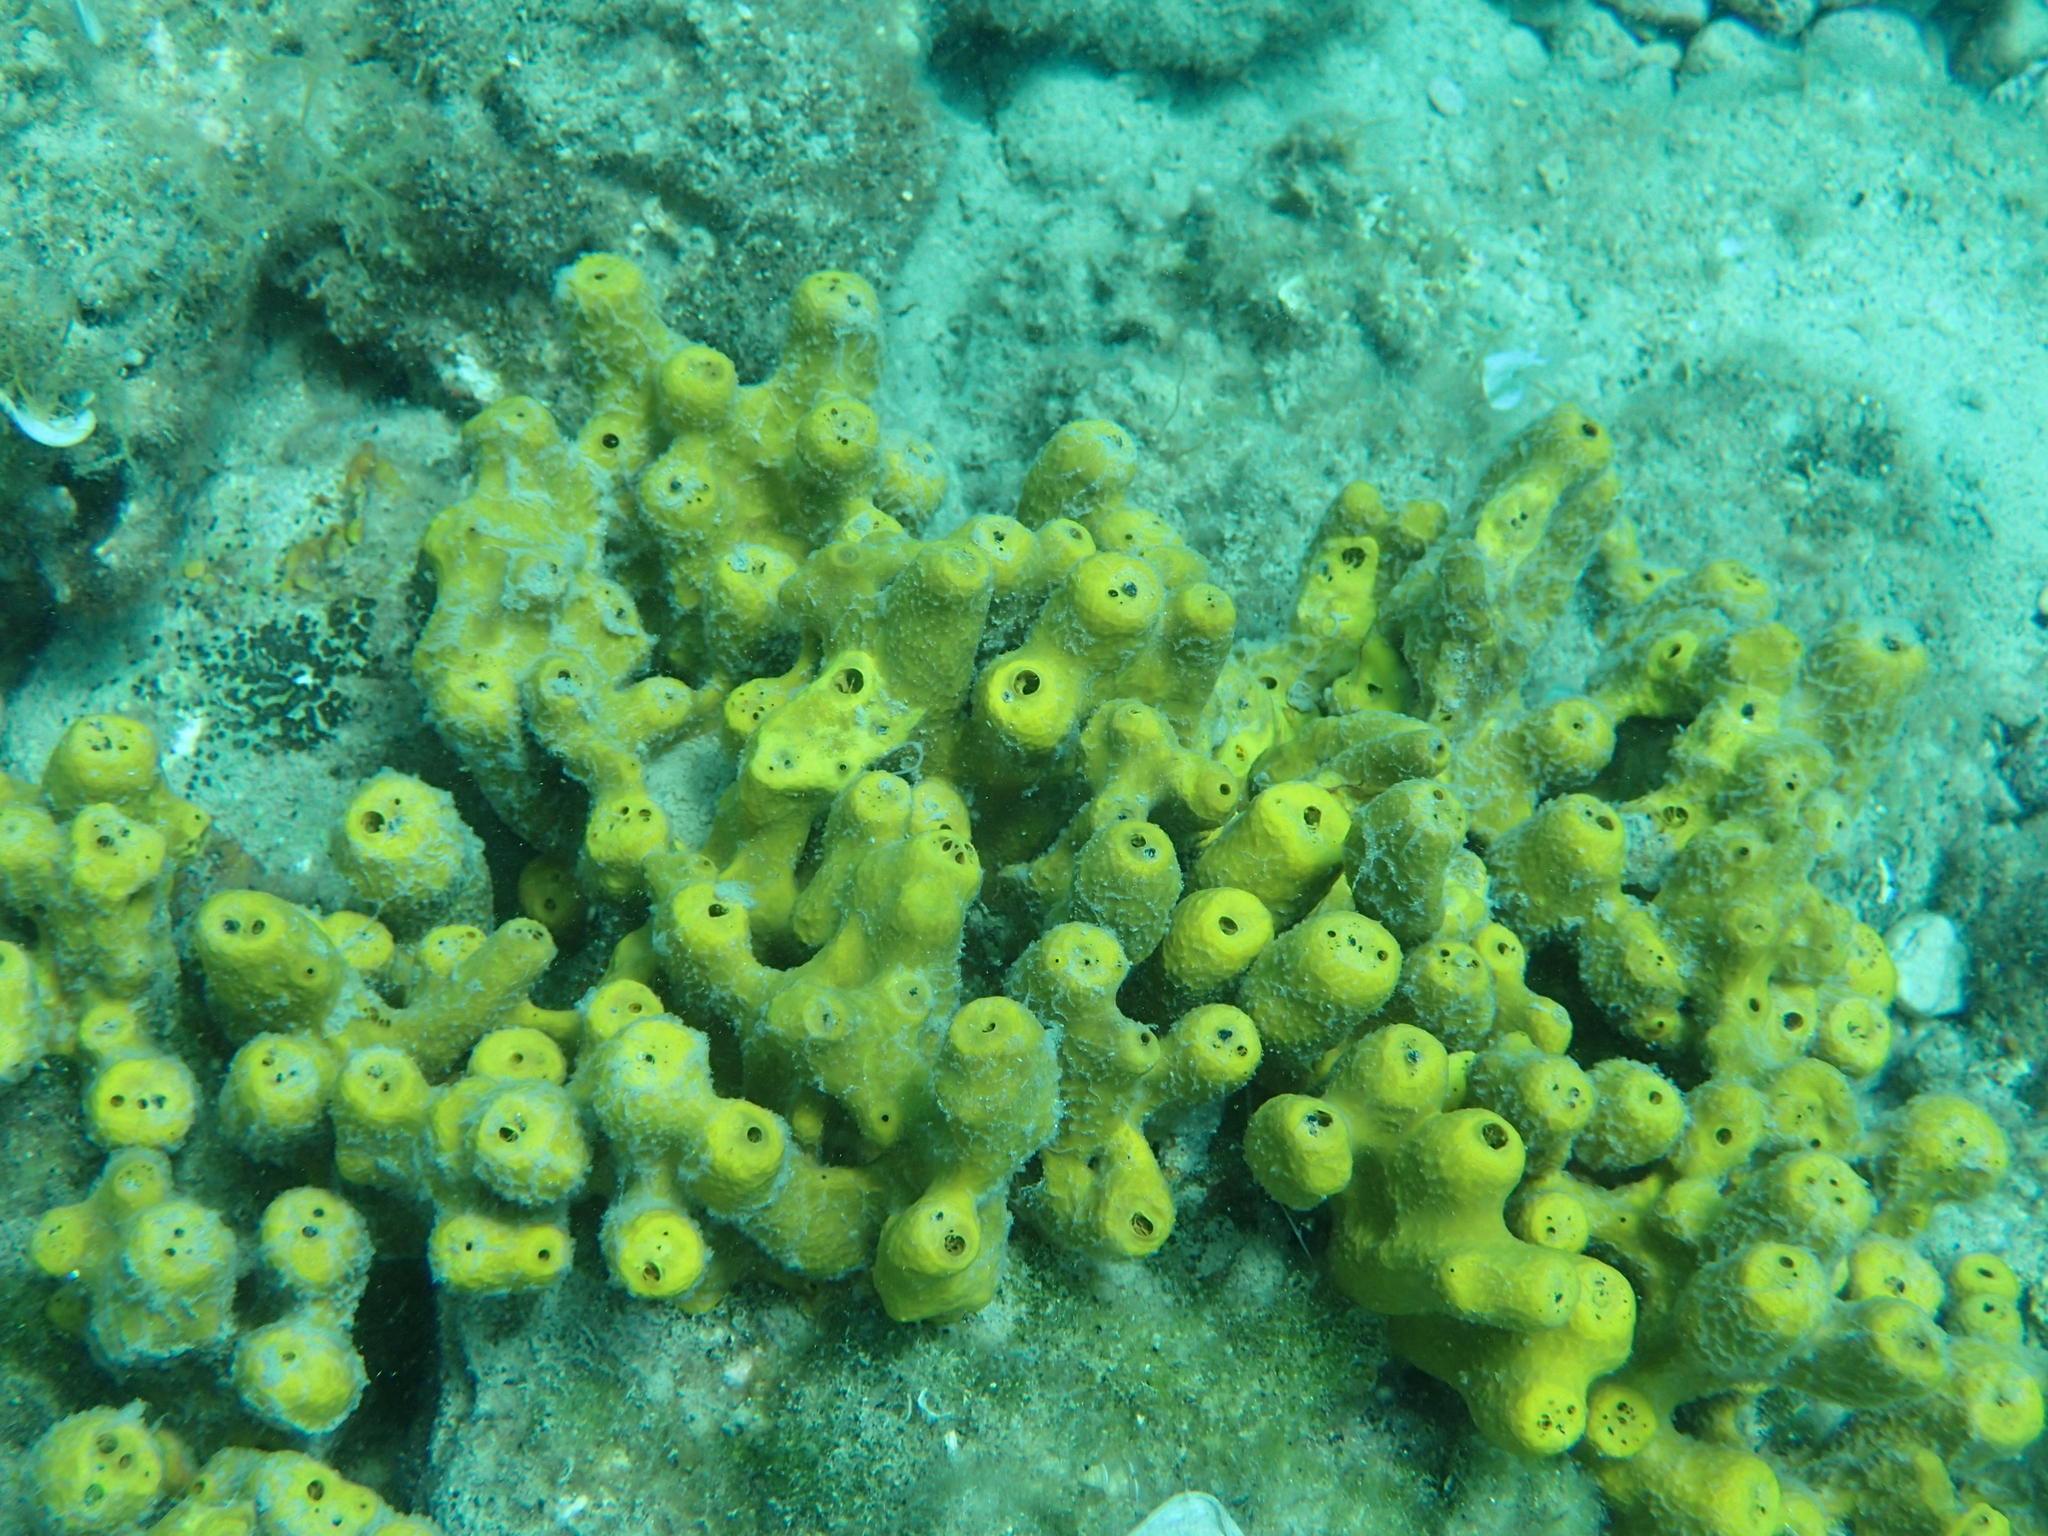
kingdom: Animalia
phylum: Porifera
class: Demospongiae
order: Verongiida
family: Aplysinidae
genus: Aplysina
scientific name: Aplysina aerophoba
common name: Aureate sponge
